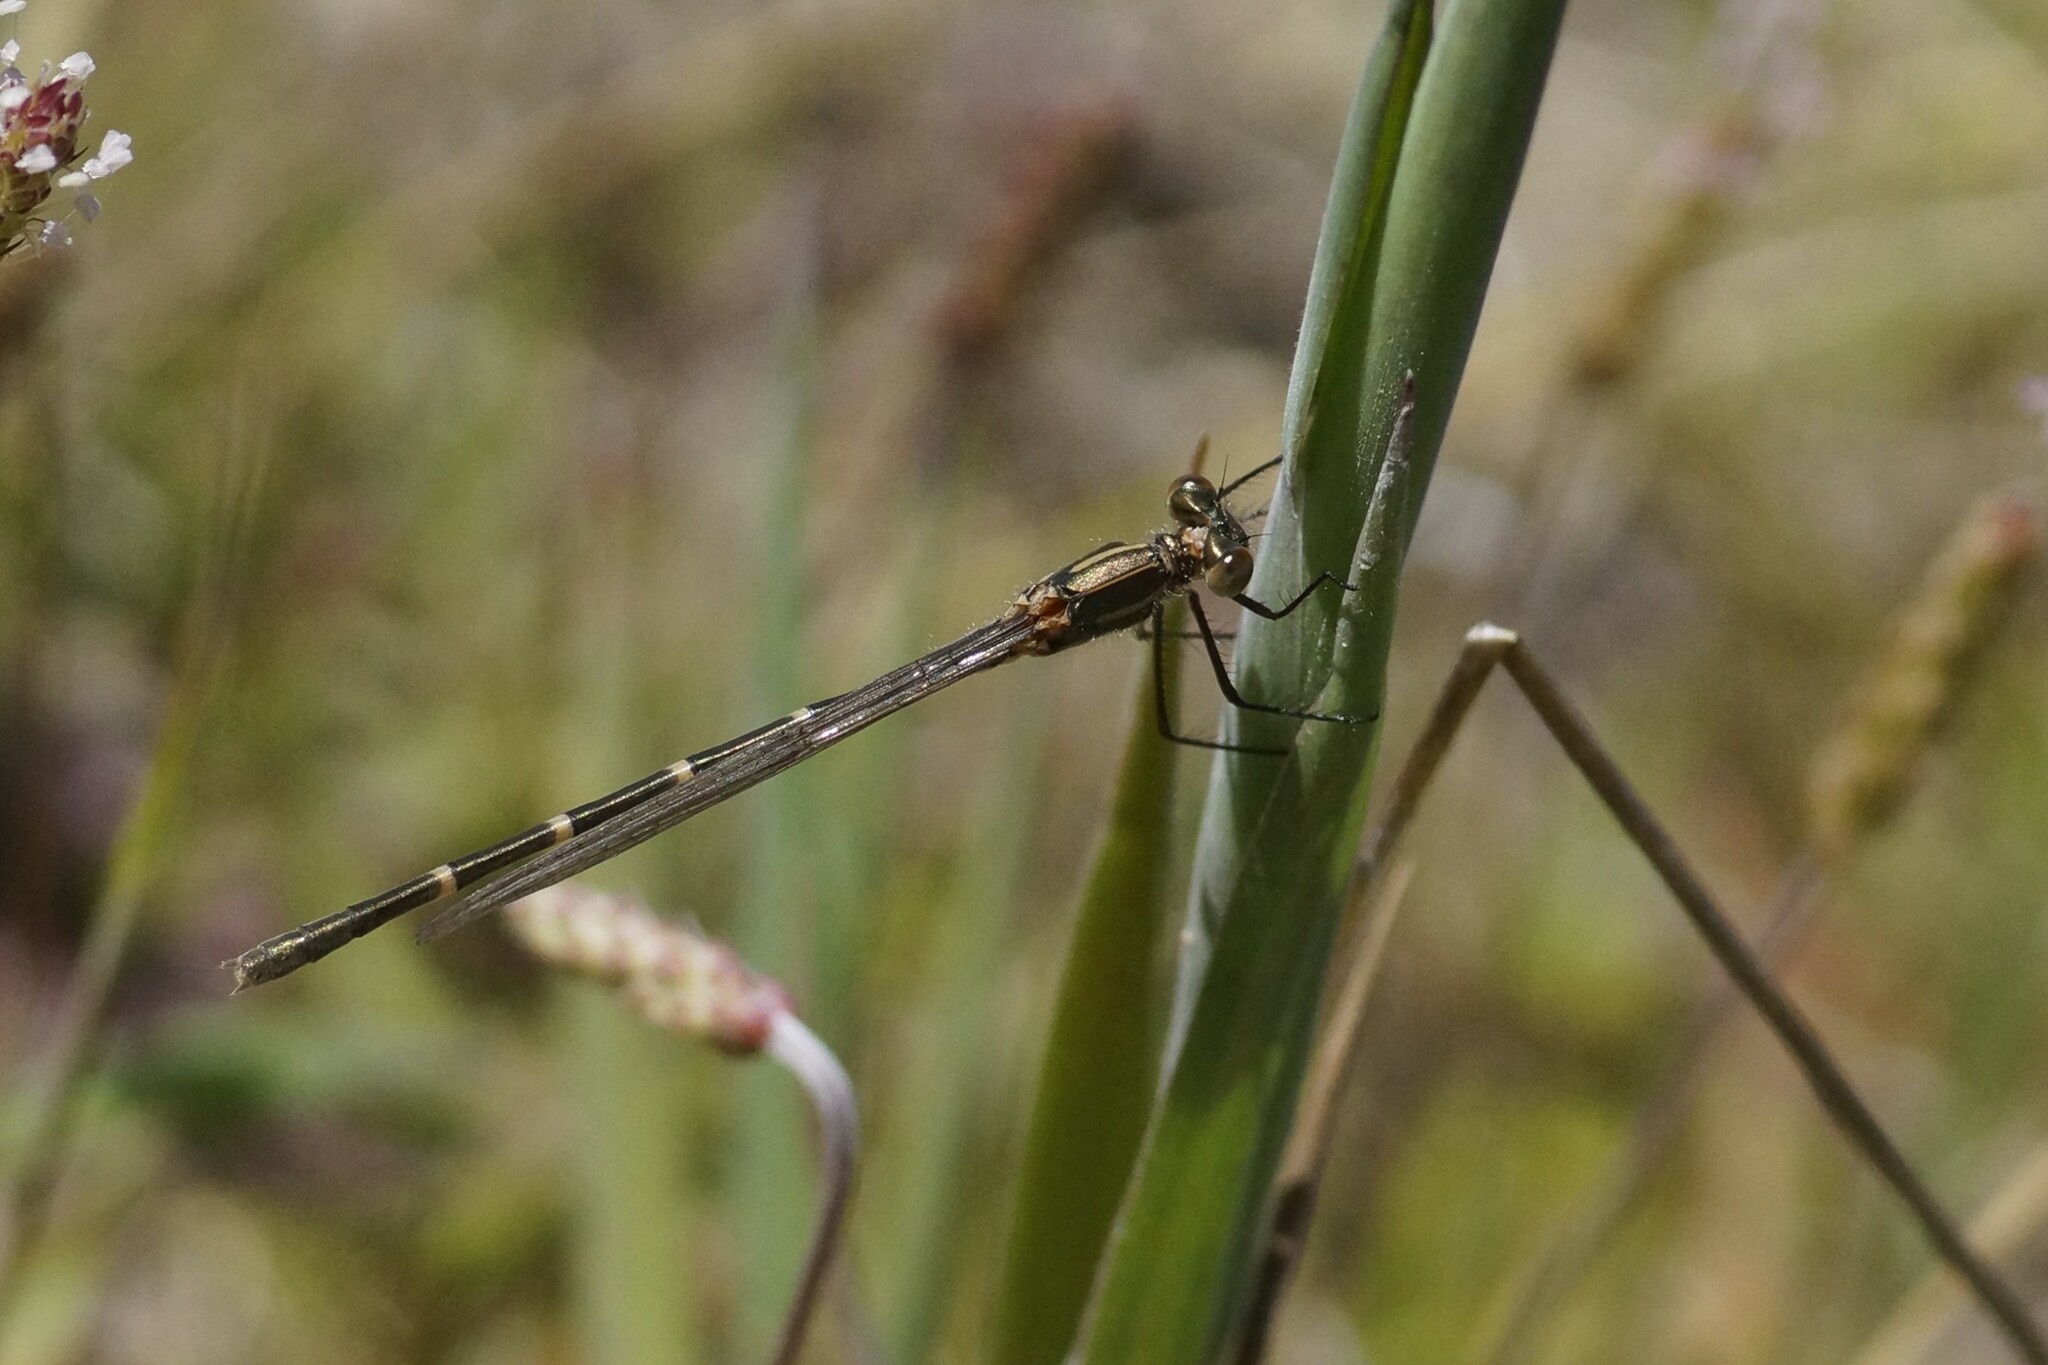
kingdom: Animalia
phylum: Arthropoda
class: Insecta
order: Odonata
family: Lestidae
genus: Austrolestes
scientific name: Austrolestes annulosus
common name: Blue ringtail
